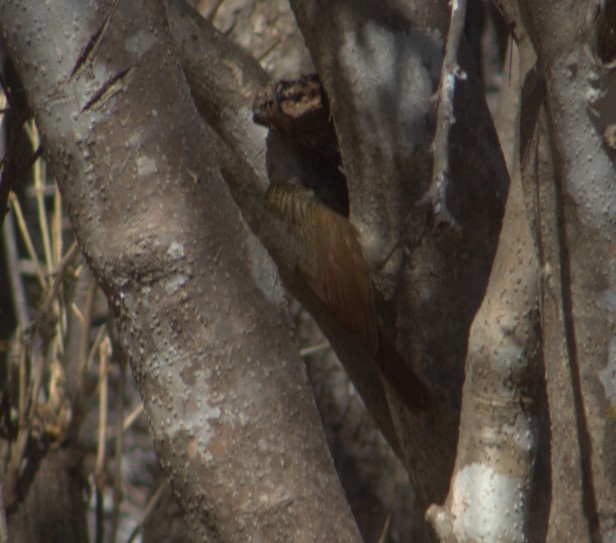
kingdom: Animalia
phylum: Chordata
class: Aves
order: Passeriformes
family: Furnariidae
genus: Xiphorhynchus
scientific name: Xiphorhynchus flavigaster
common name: Ivory-billed woodcreeper
